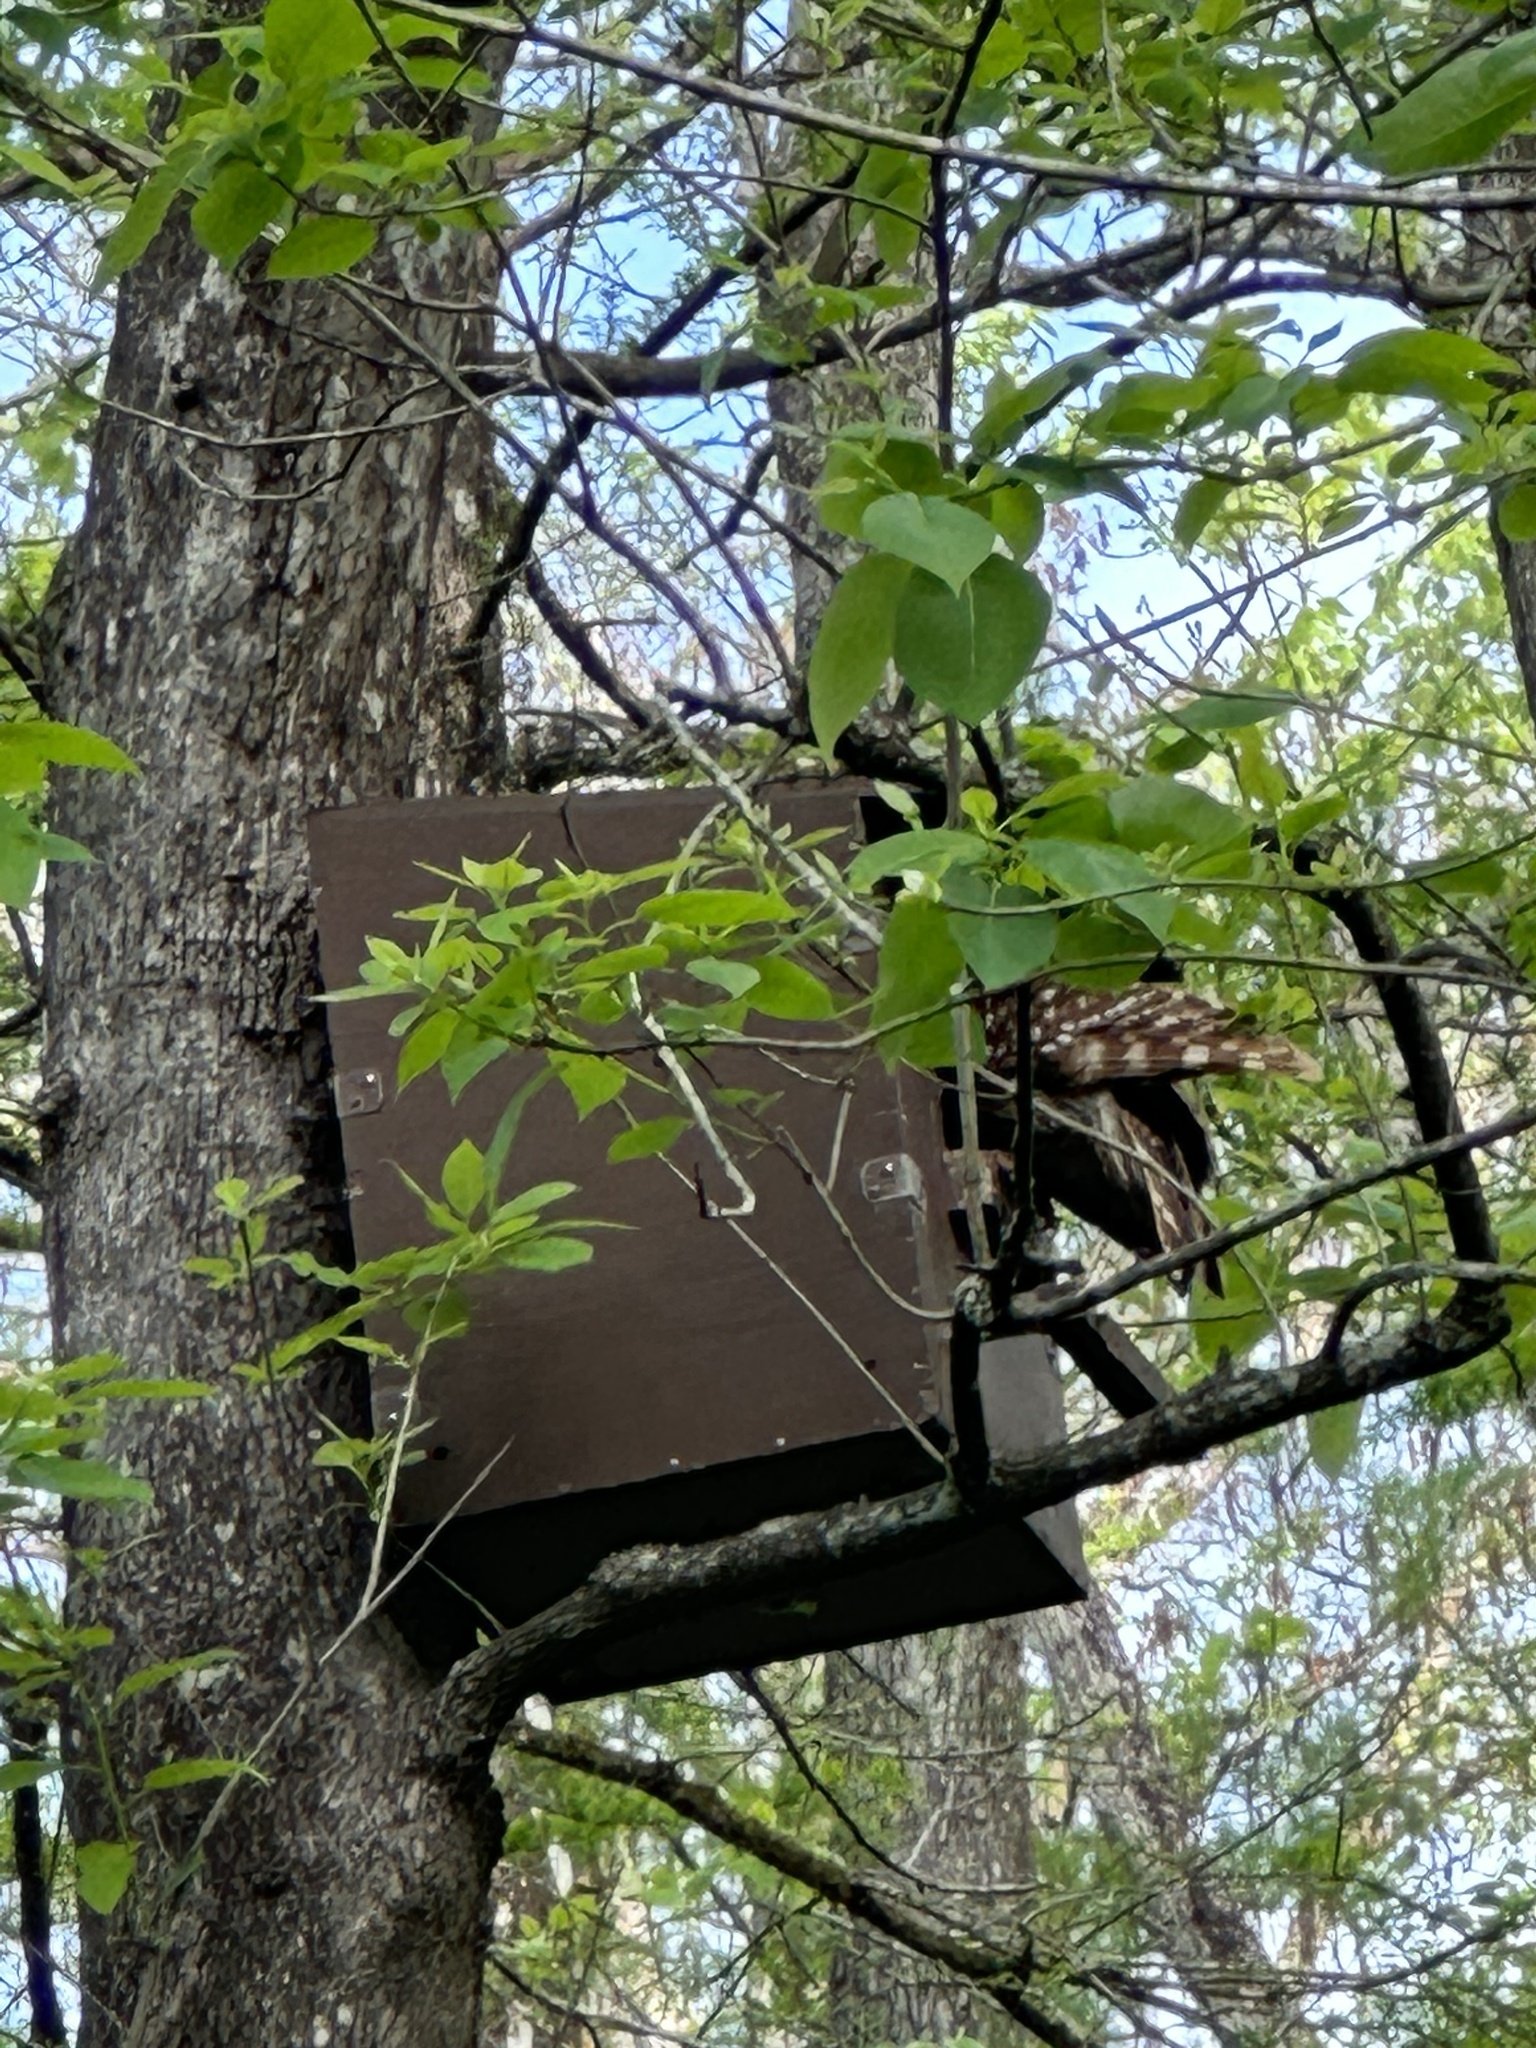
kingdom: Animalia
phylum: Chordata
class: Aves
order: Strigiformes
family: Strigidae
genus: Strix
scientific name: Strix varia
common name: Barred owl
